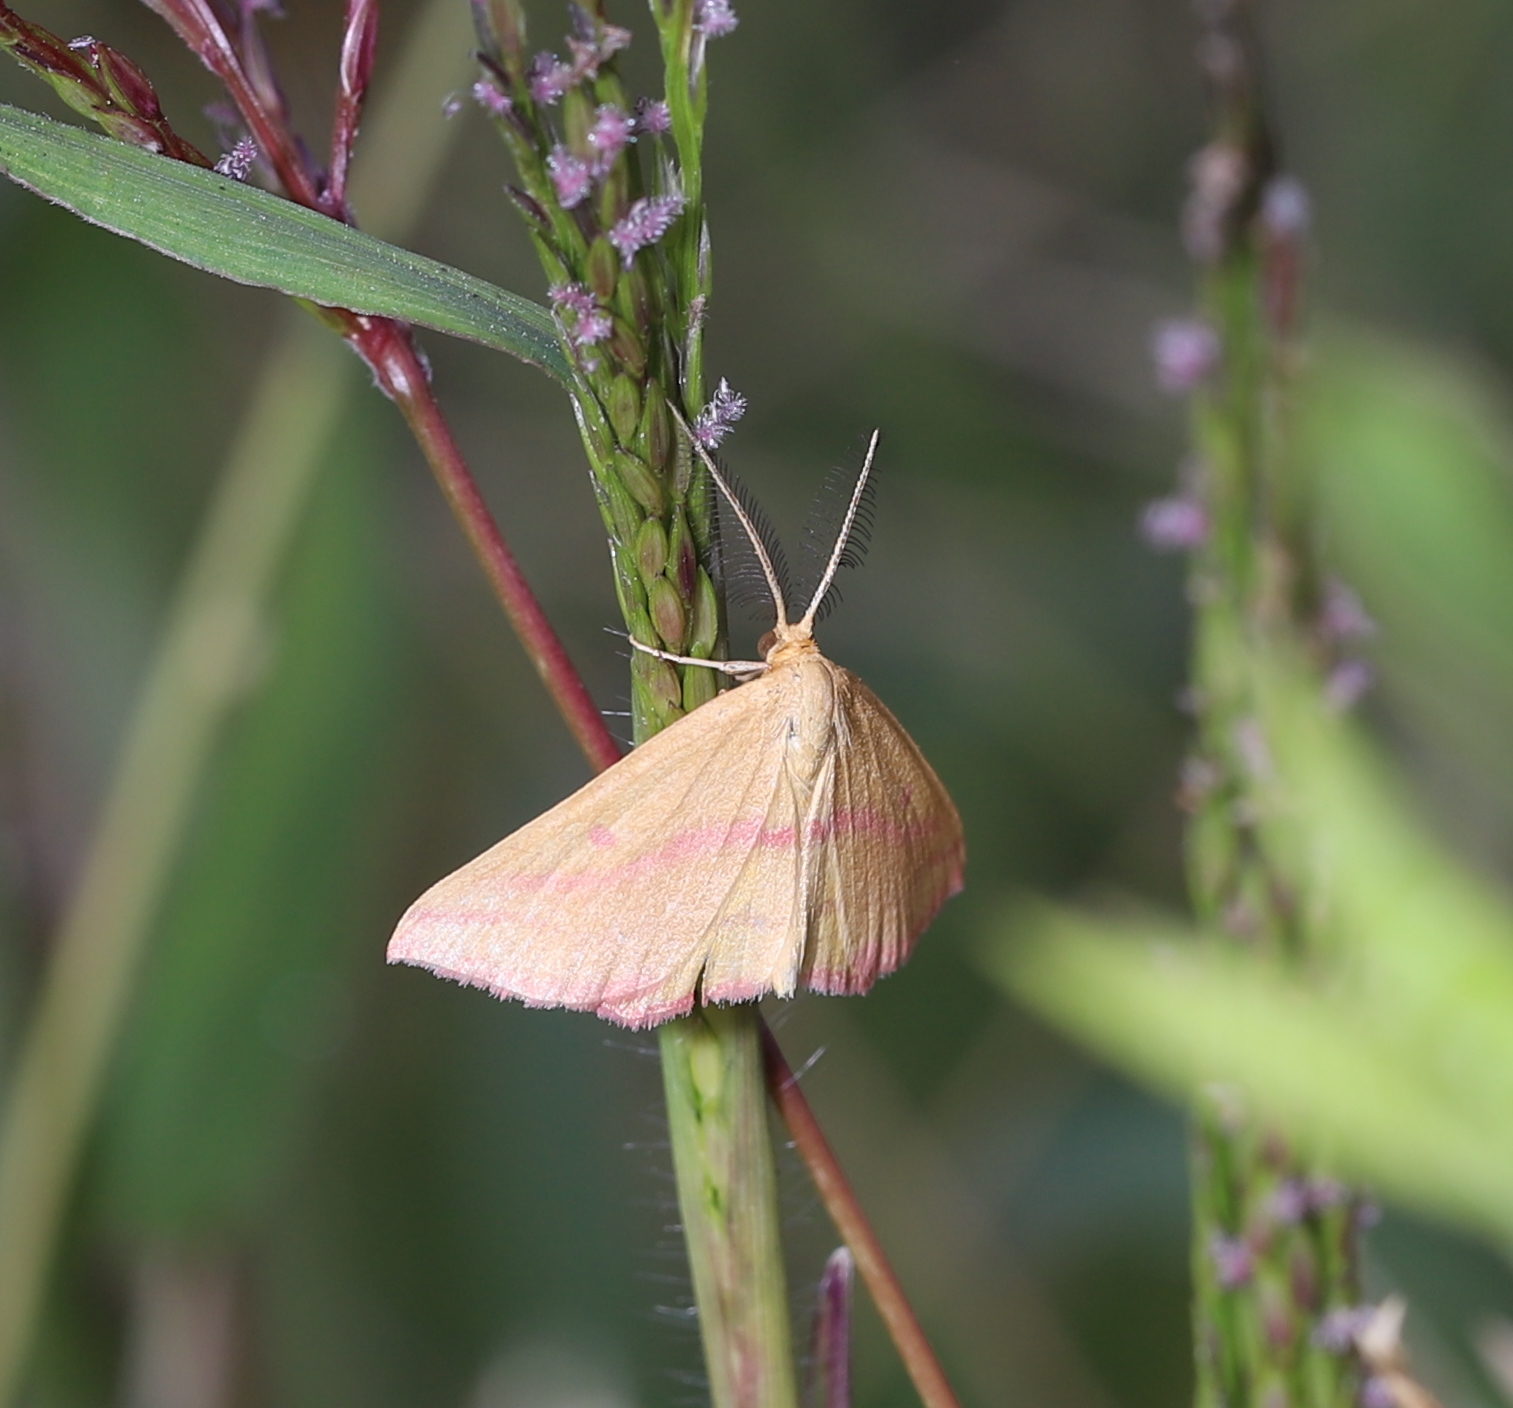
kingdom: Animalia
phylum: Arthropoda
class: Insecta
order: Lepidoptera
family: Geometridae
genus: Haematopis
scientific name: Haematopis grataria
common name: Chickweed geometer
